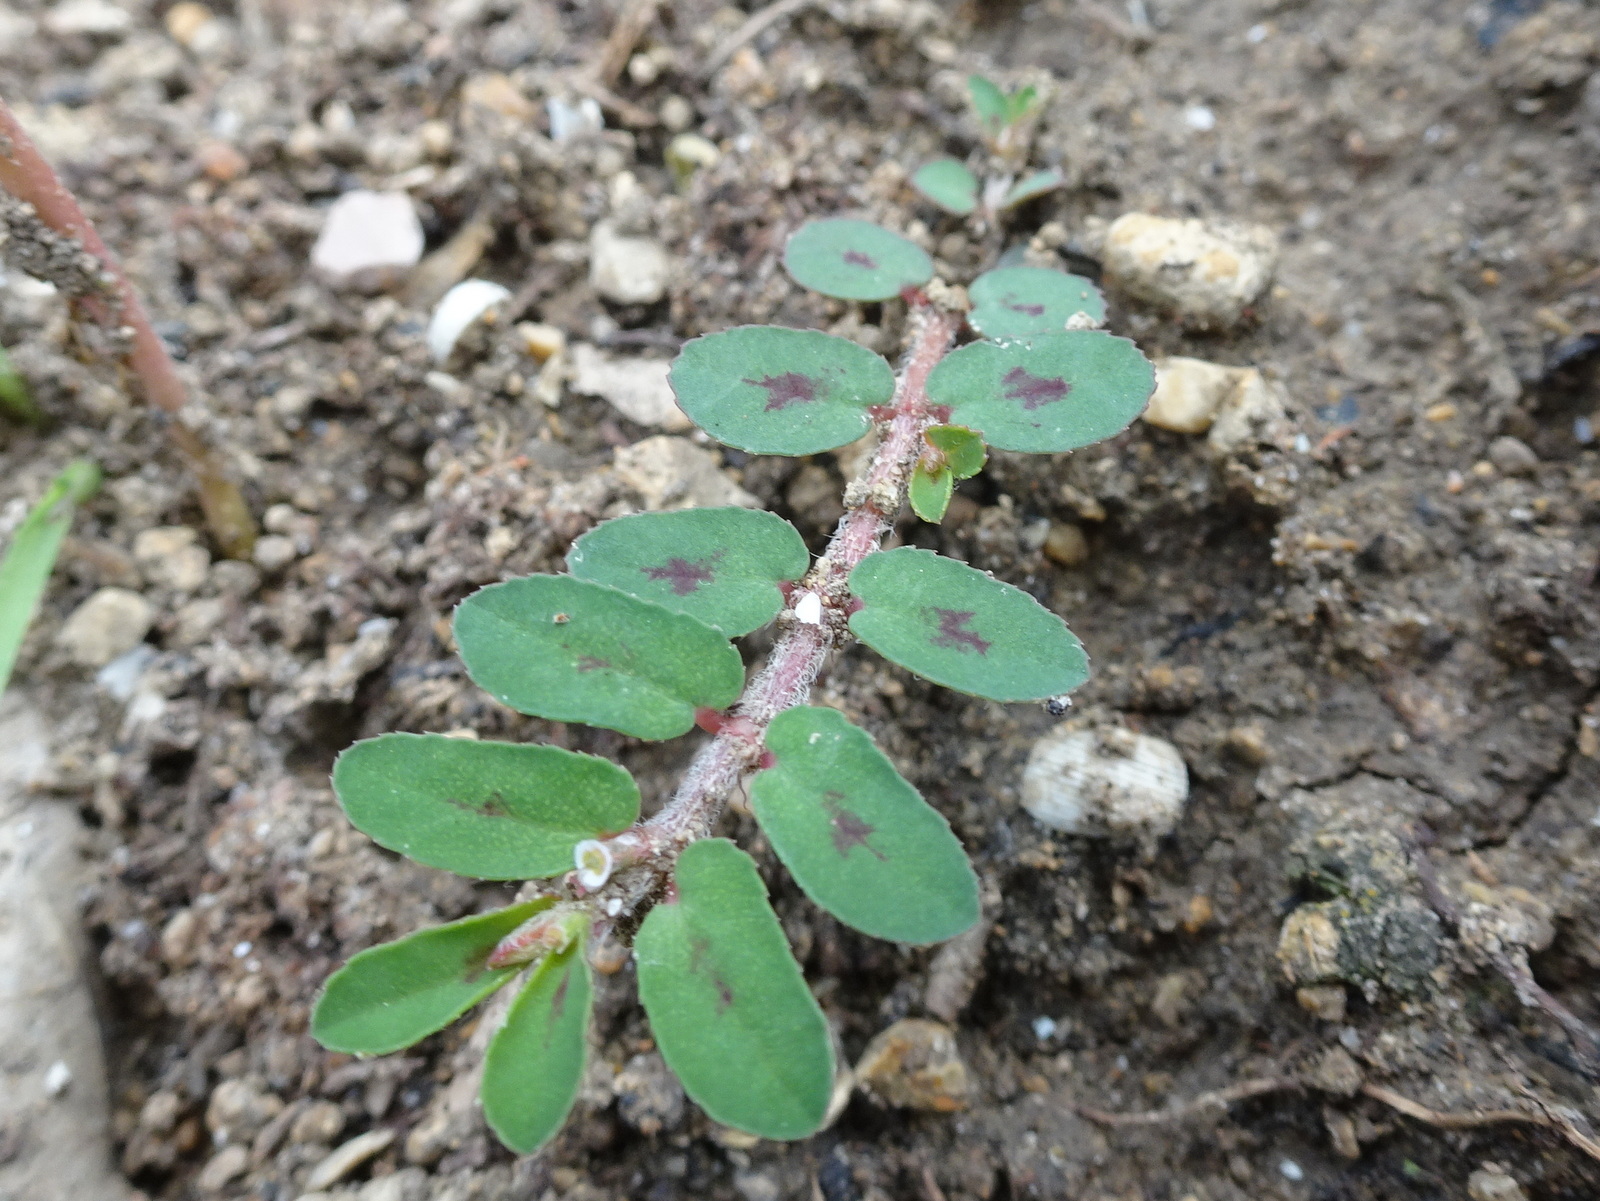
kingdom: Plantae
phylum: Tracheophyta
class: Magnoliopsida
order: Malpighiales
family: Euphorbiaceae
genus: Euphorbia
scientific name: Euphorbia maculata
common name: Spotted spurge
